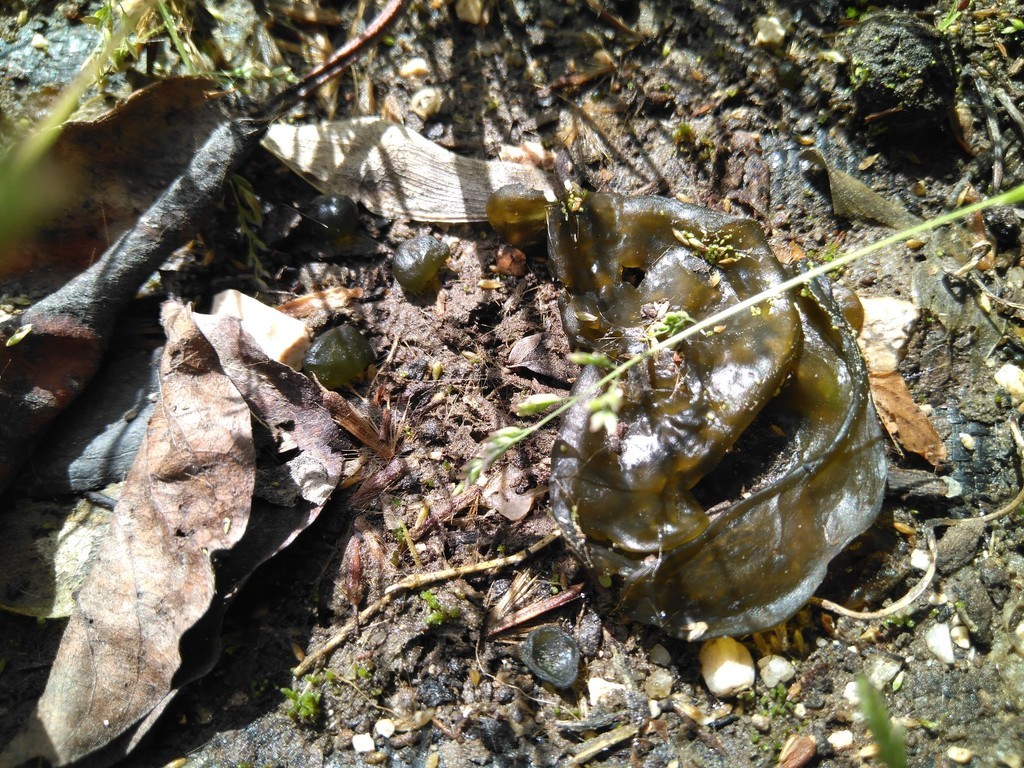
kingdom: Bacteria
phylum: Cyanobacteria
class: Cyanobacteriia
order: Cyanobacteriales
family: Nostocaceae
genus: Nostoc
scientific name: Nostoc commune
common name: Star jelly
